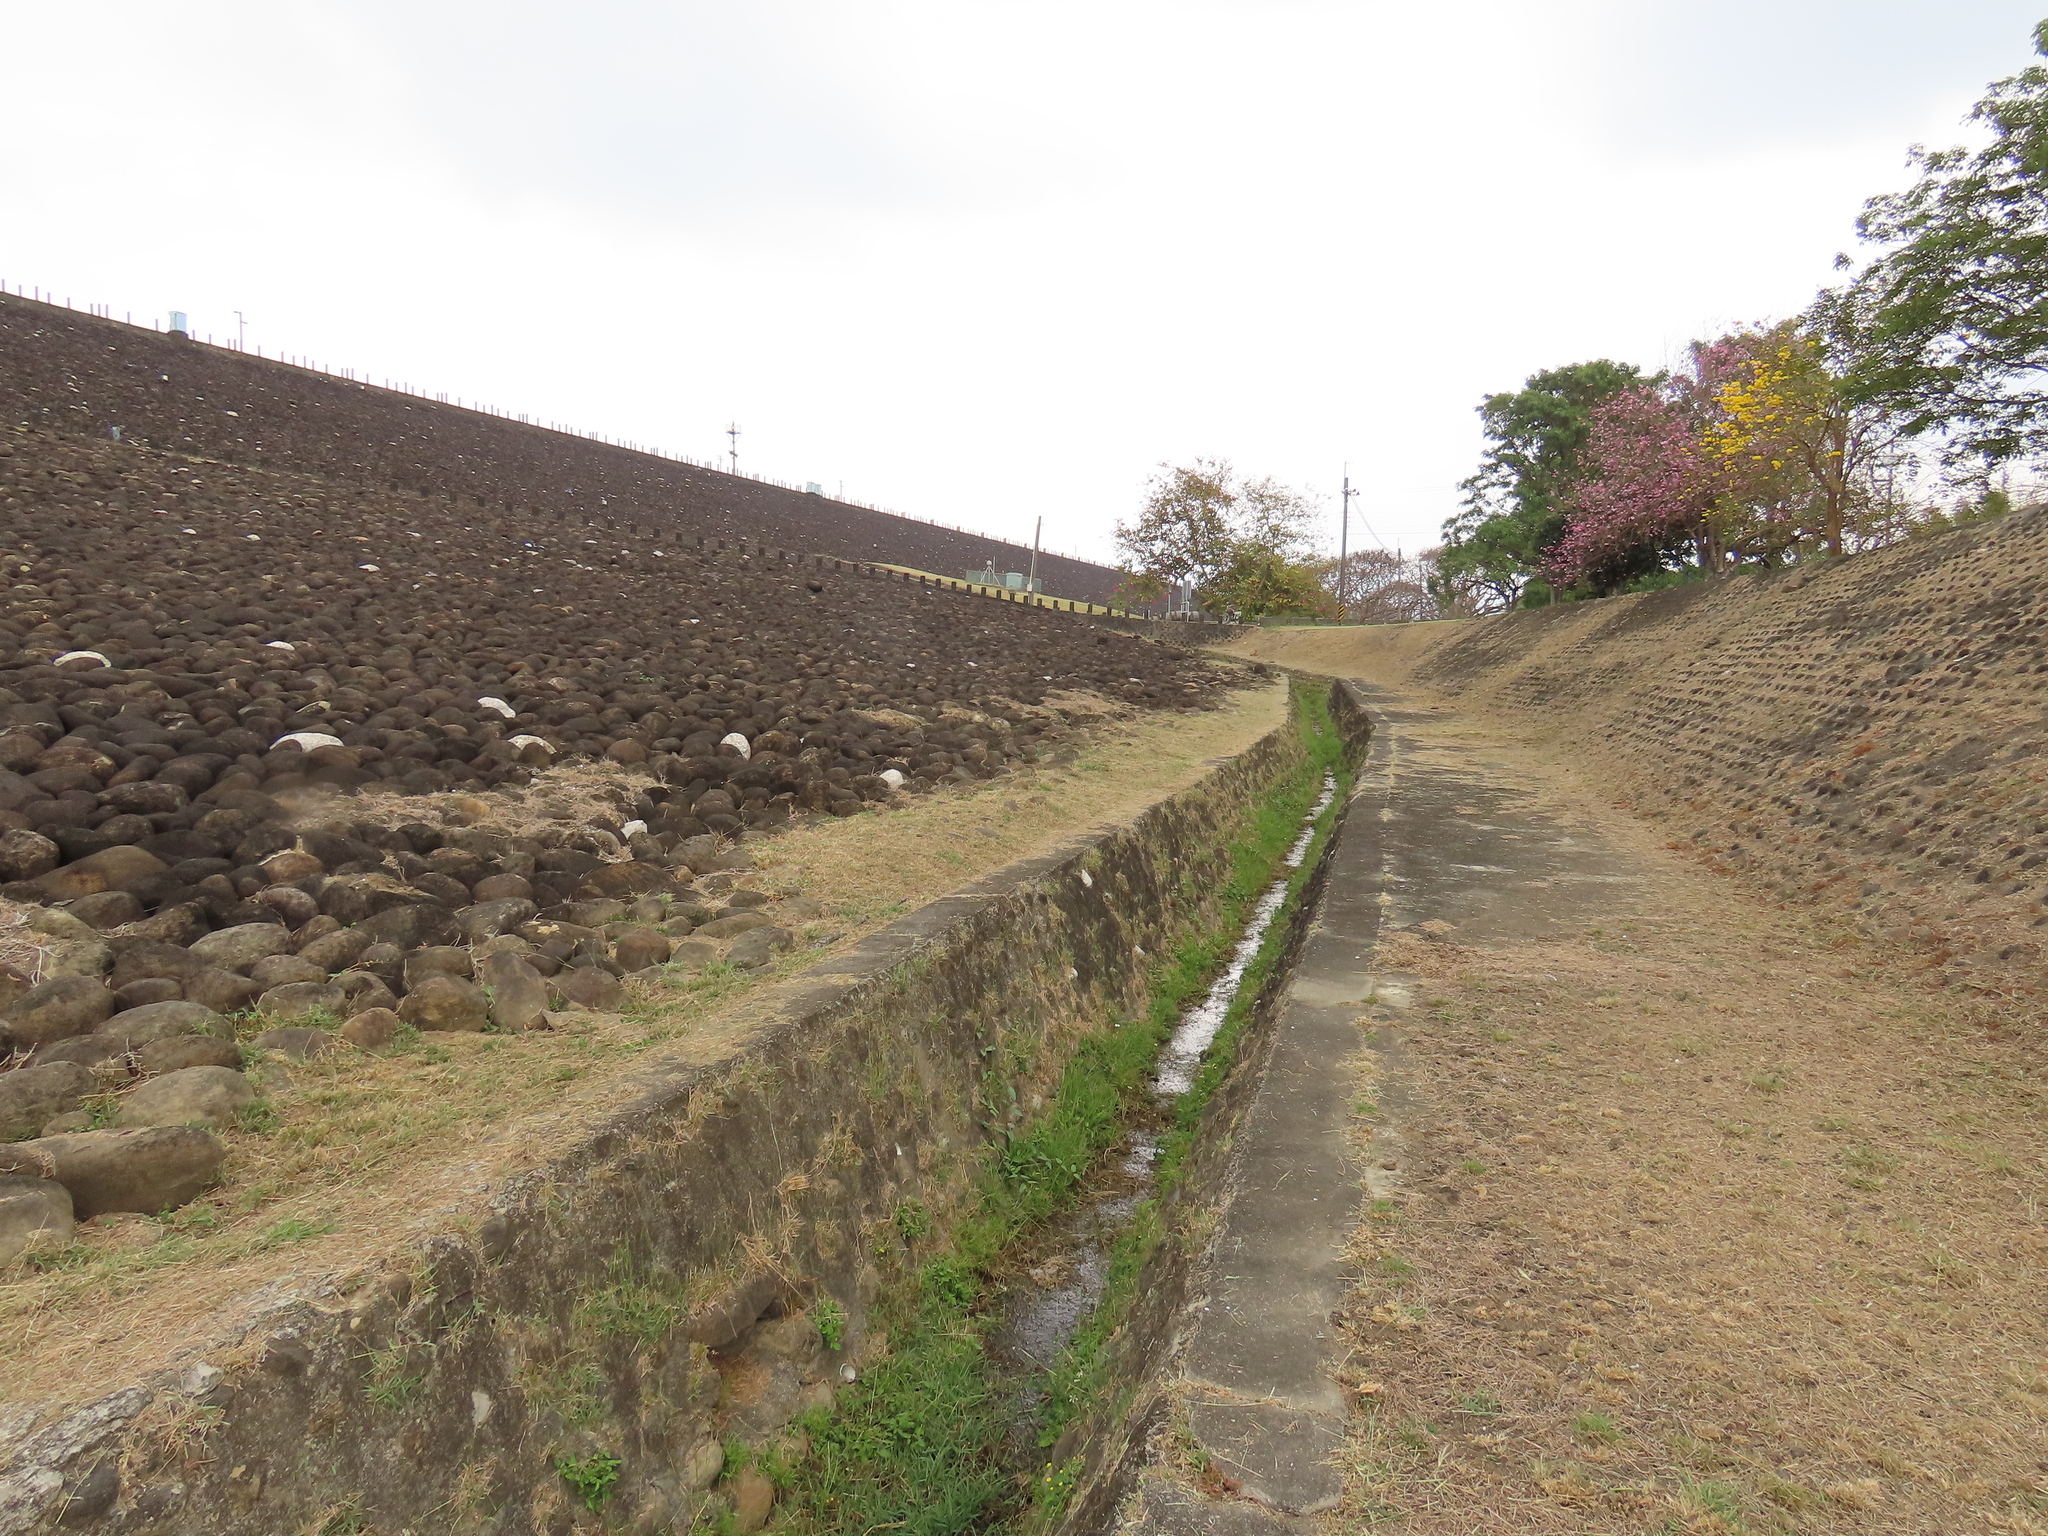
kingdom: Plantae
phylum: Tracheophyta
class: Magnoliopsida
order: Myrtales
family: Onagraceae
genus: Ludwigia
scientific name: Ludwigia octovalvis
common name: Water-primrose
